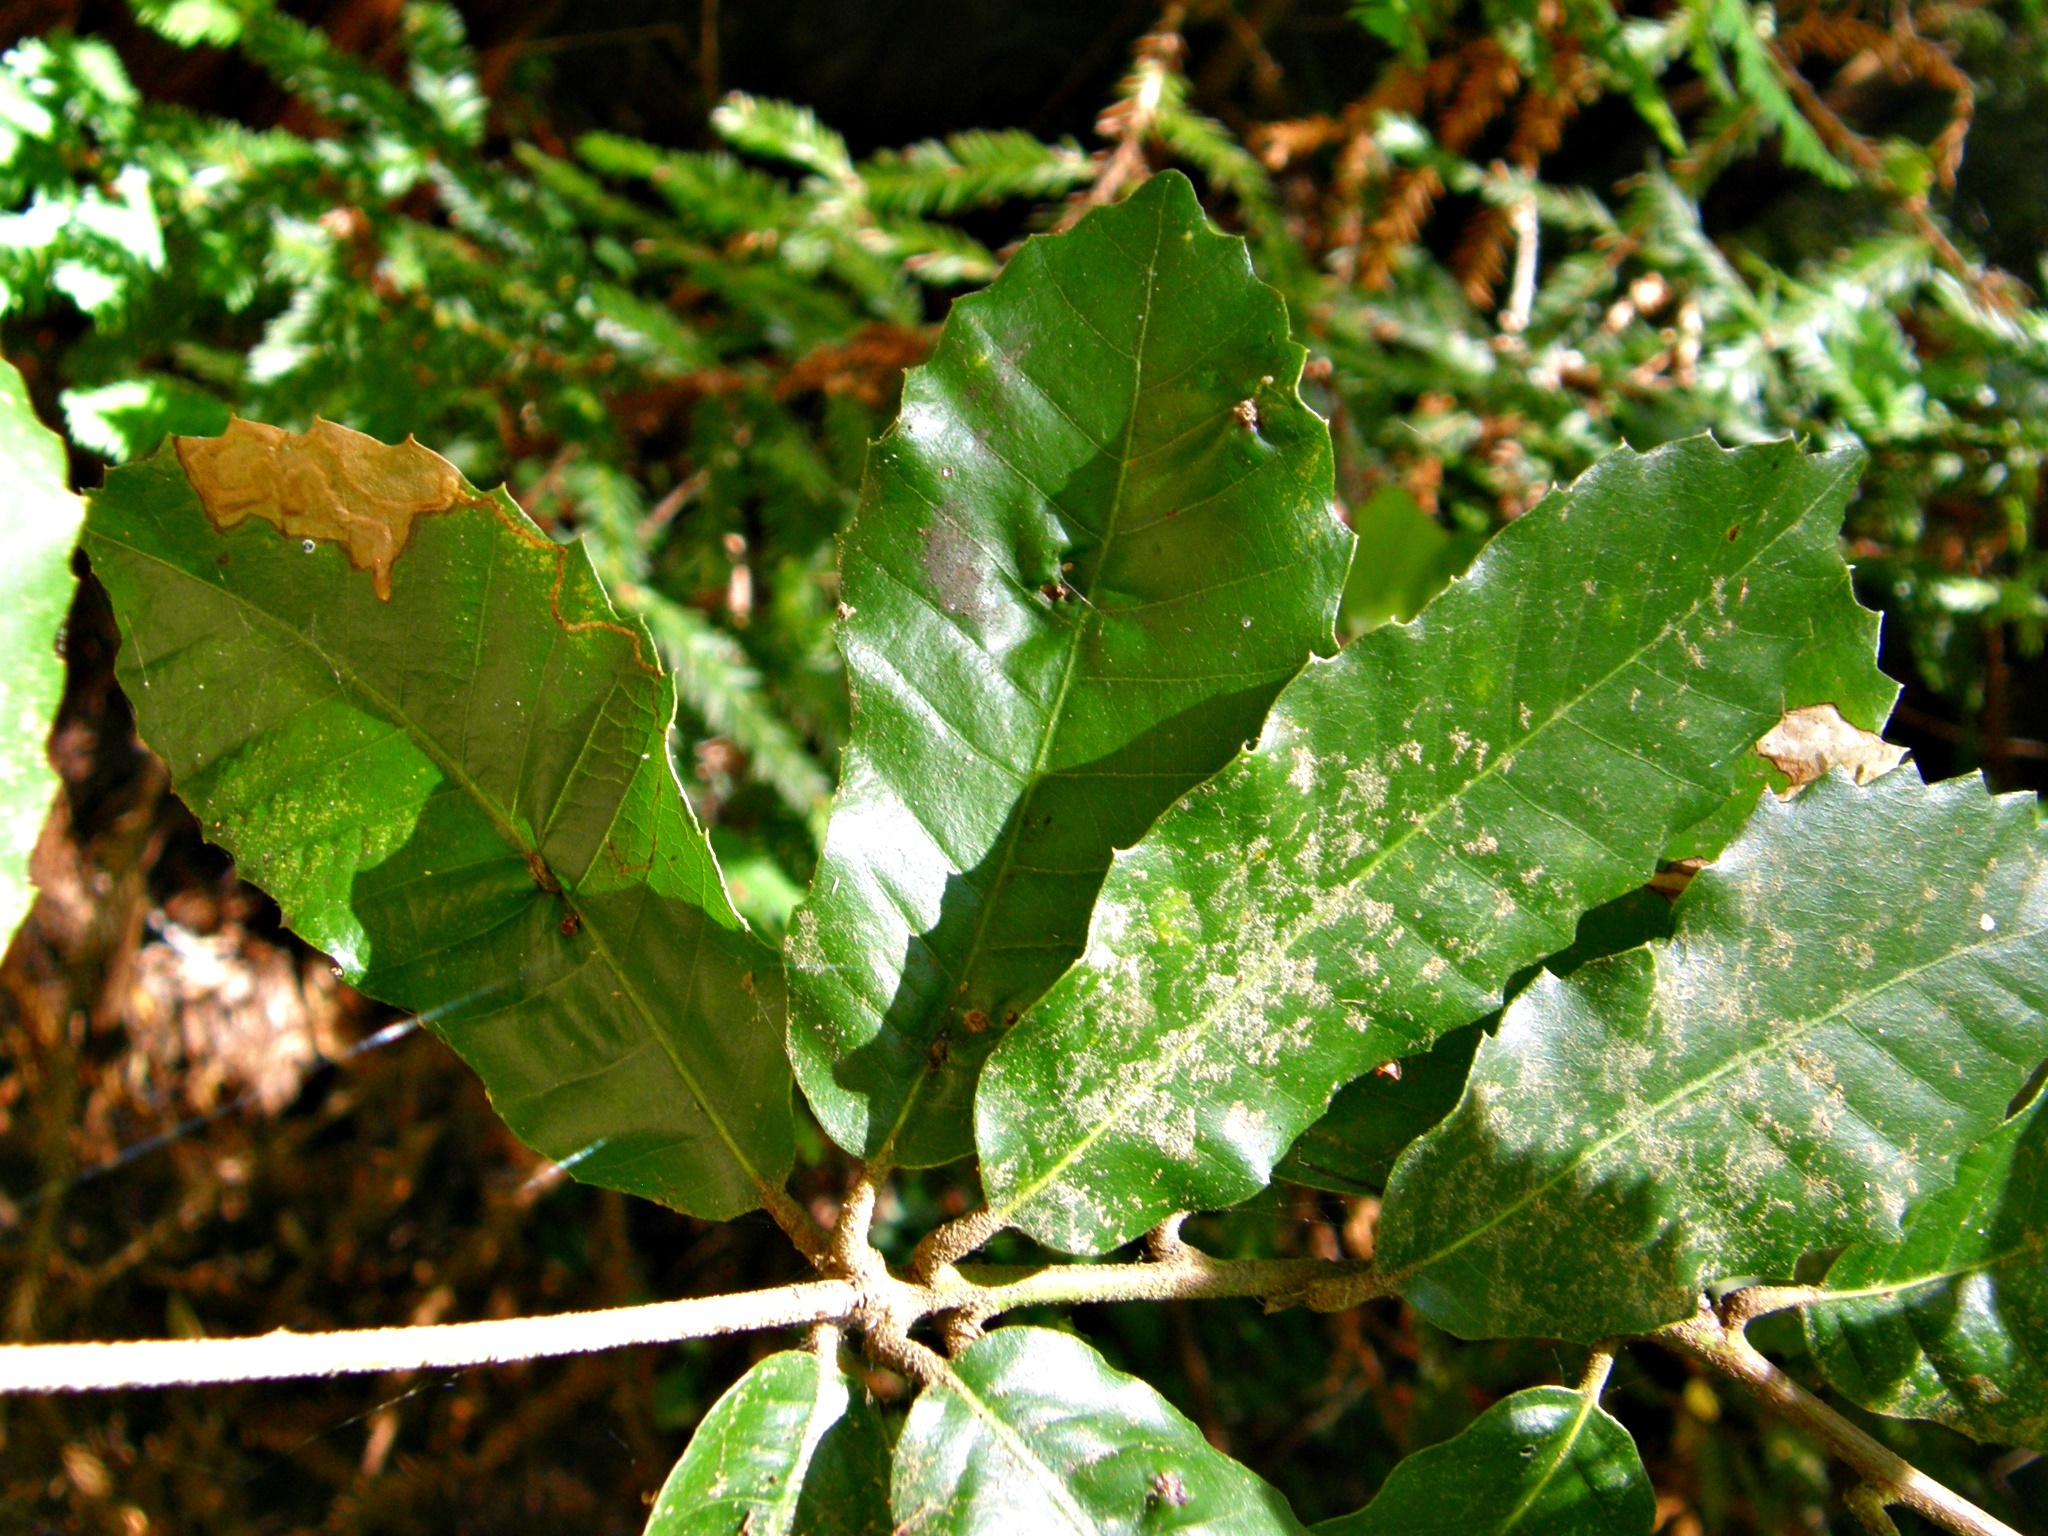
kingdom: Plantae
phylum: Tracheophyta
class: Magnoliopsida
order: Fagales
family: Fagaceae
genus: Notholithocarpus
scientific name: Notholithocarpus densiflorus
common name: Tan bark oak
